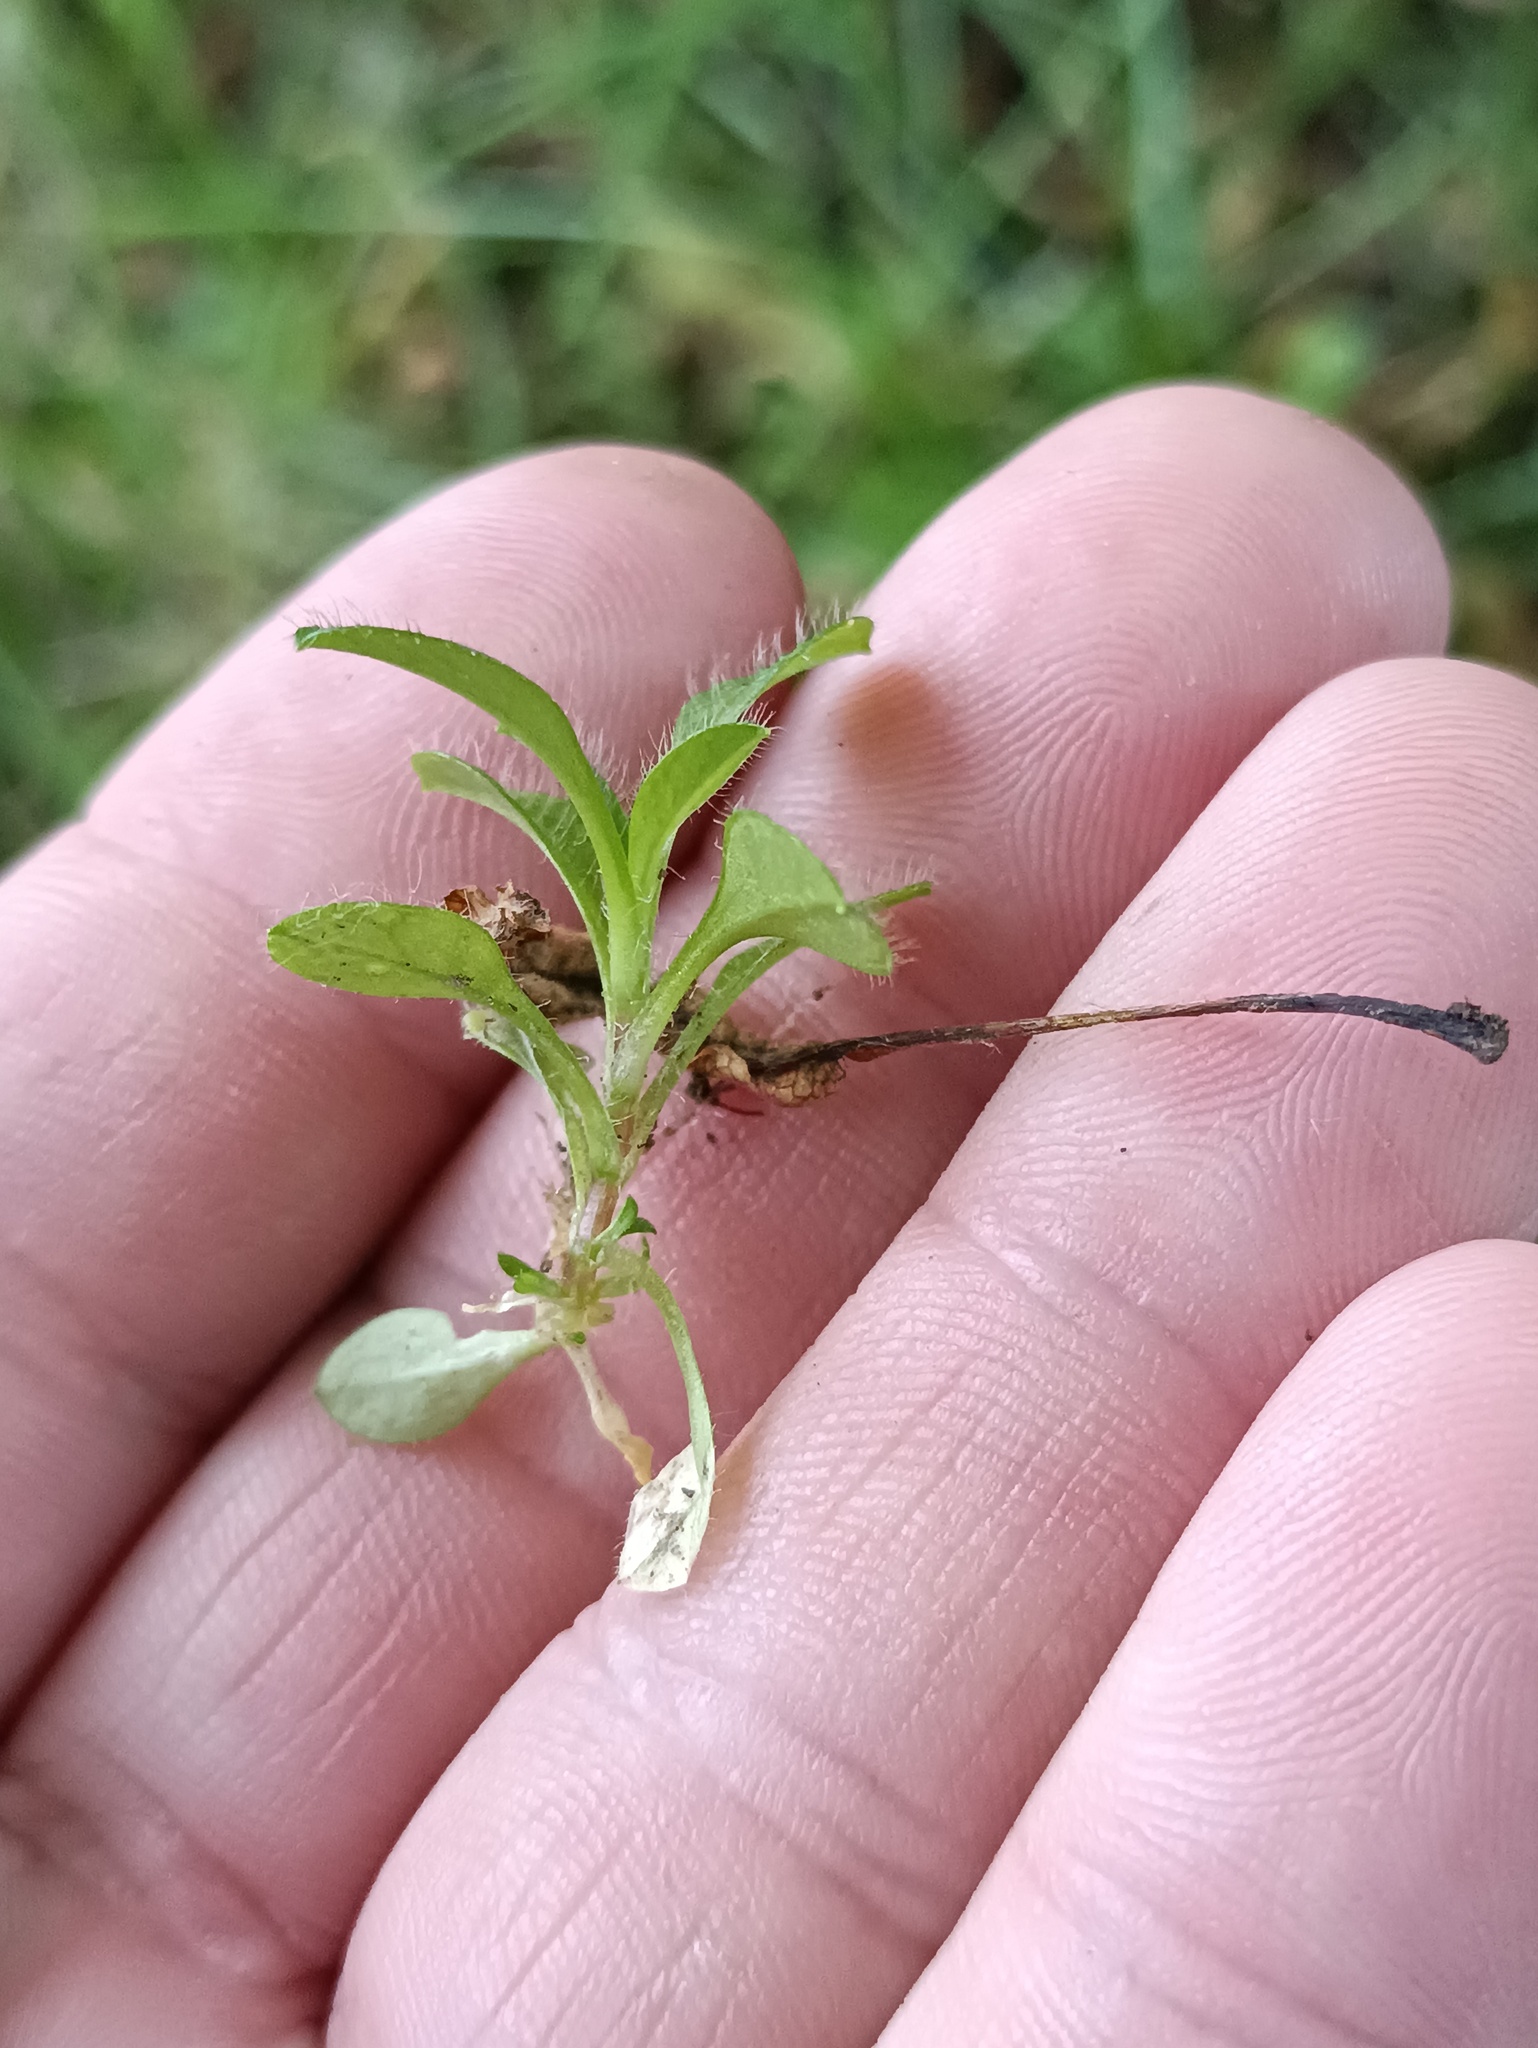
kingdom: Plantae
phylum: Tracheophyta
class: Magnoliopsida
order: Caryophyllales
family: Caryophyllaceae
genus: Cerastium
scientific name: Cerastium holosteoides
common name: Big chickweed
